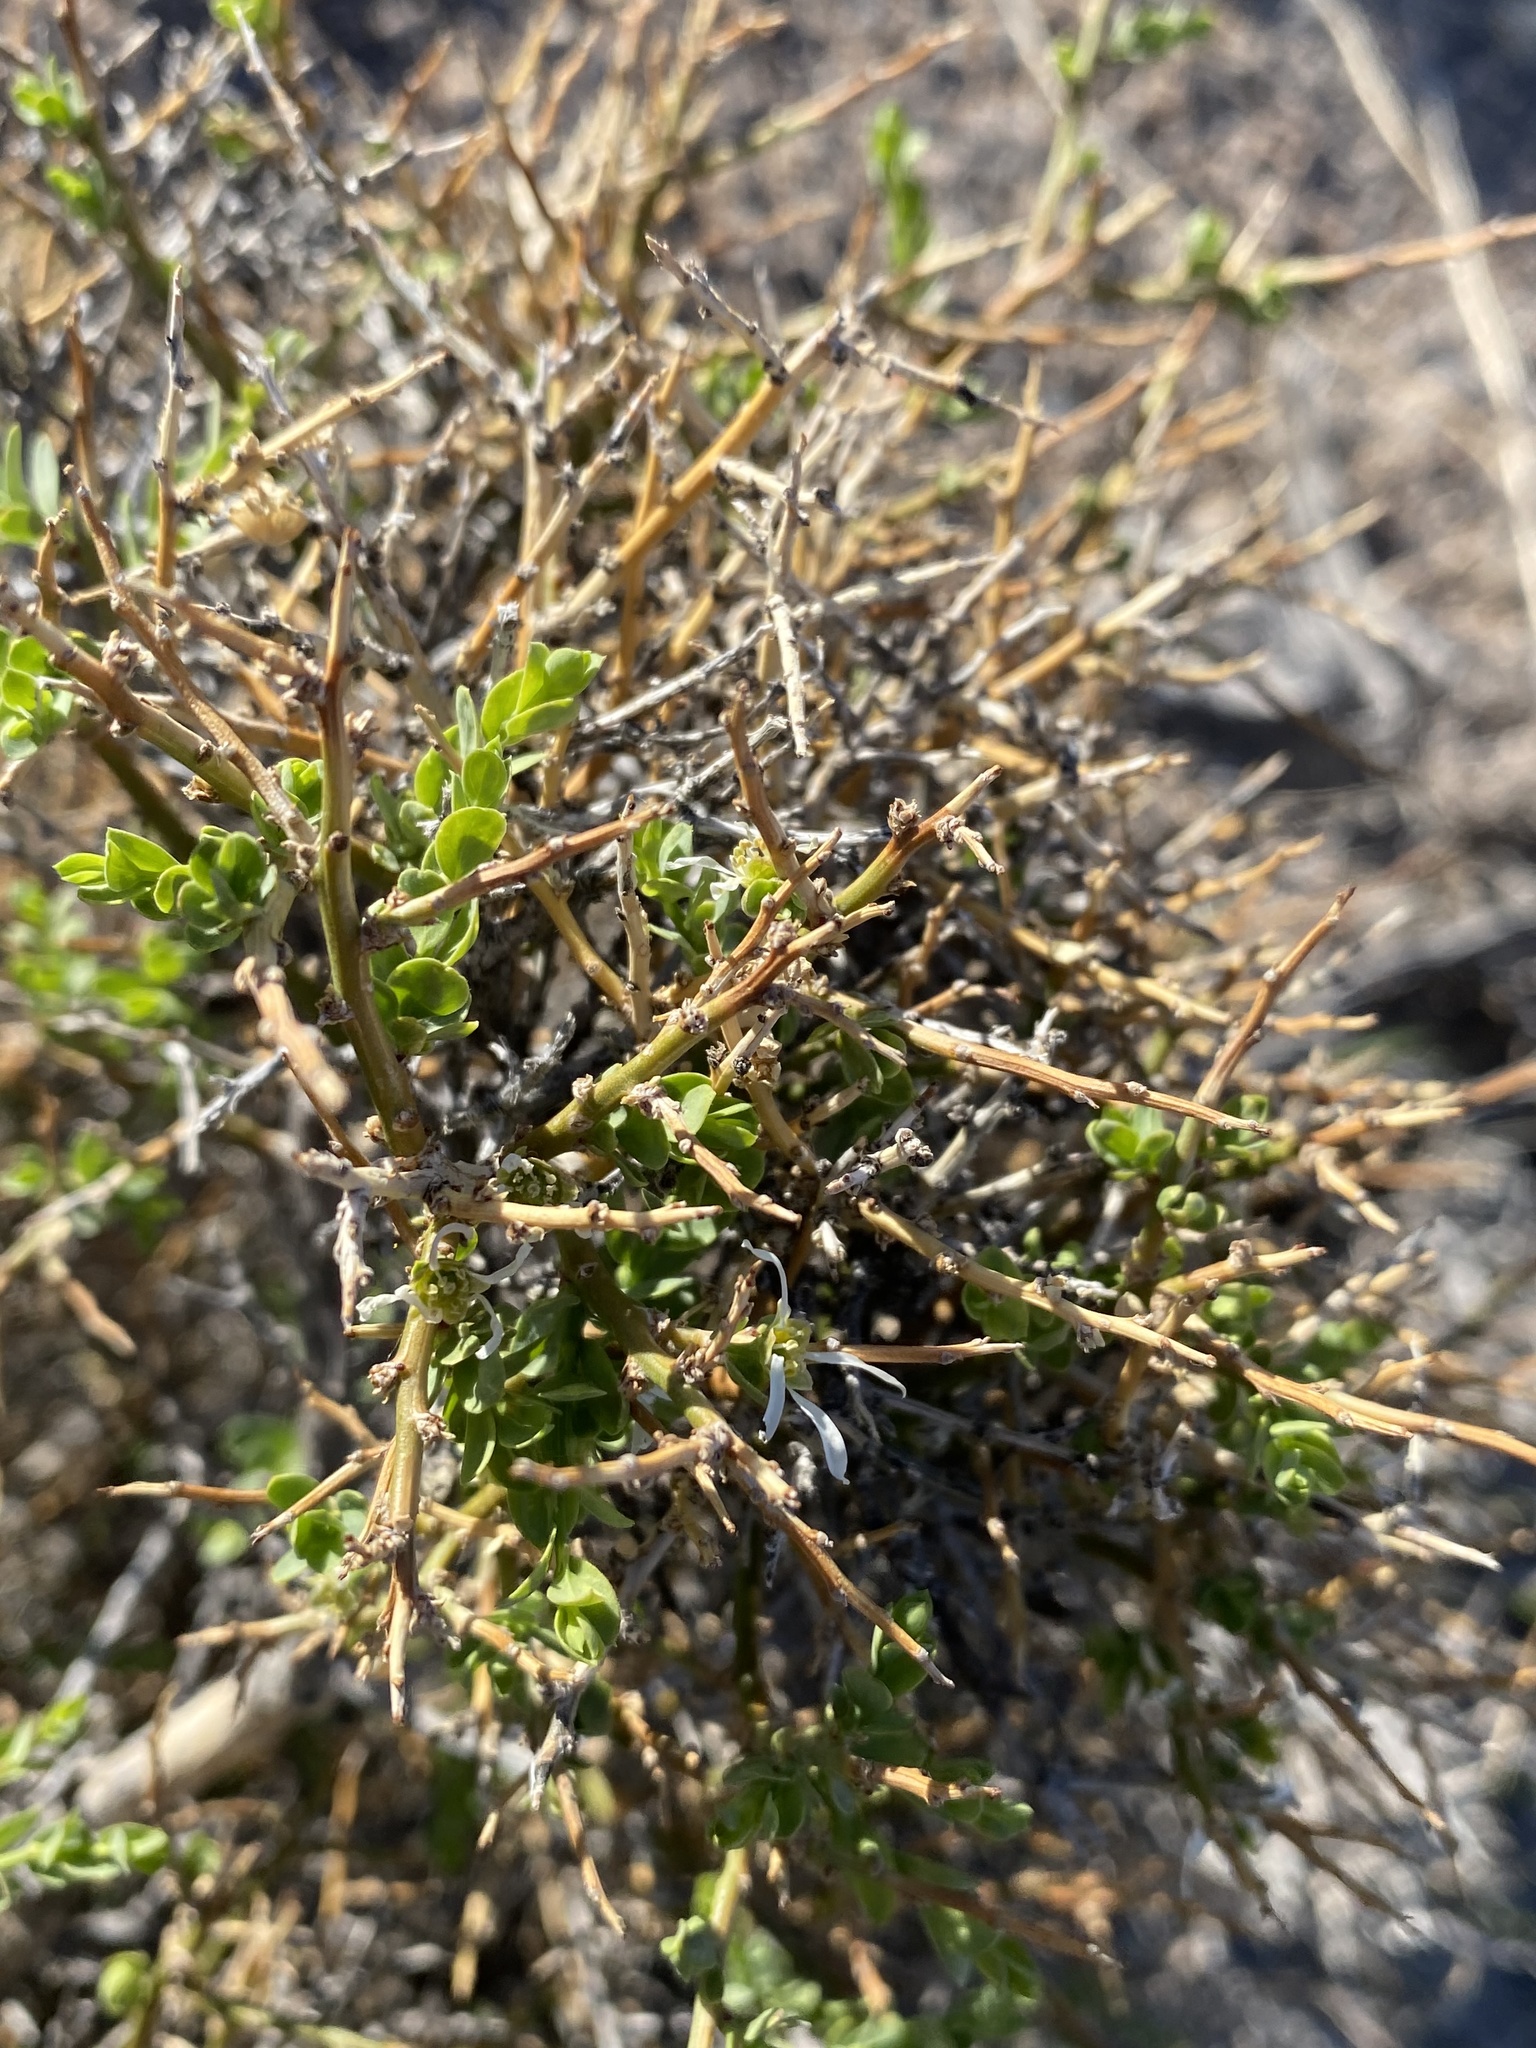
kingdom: Plantae
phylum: Tracheophyta
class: Magnoliopsida
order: Crossosomatales
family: Crossosomataceae
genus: Glossopetalon
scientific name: Glossopetalon spinescens
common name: Spring greasebush
